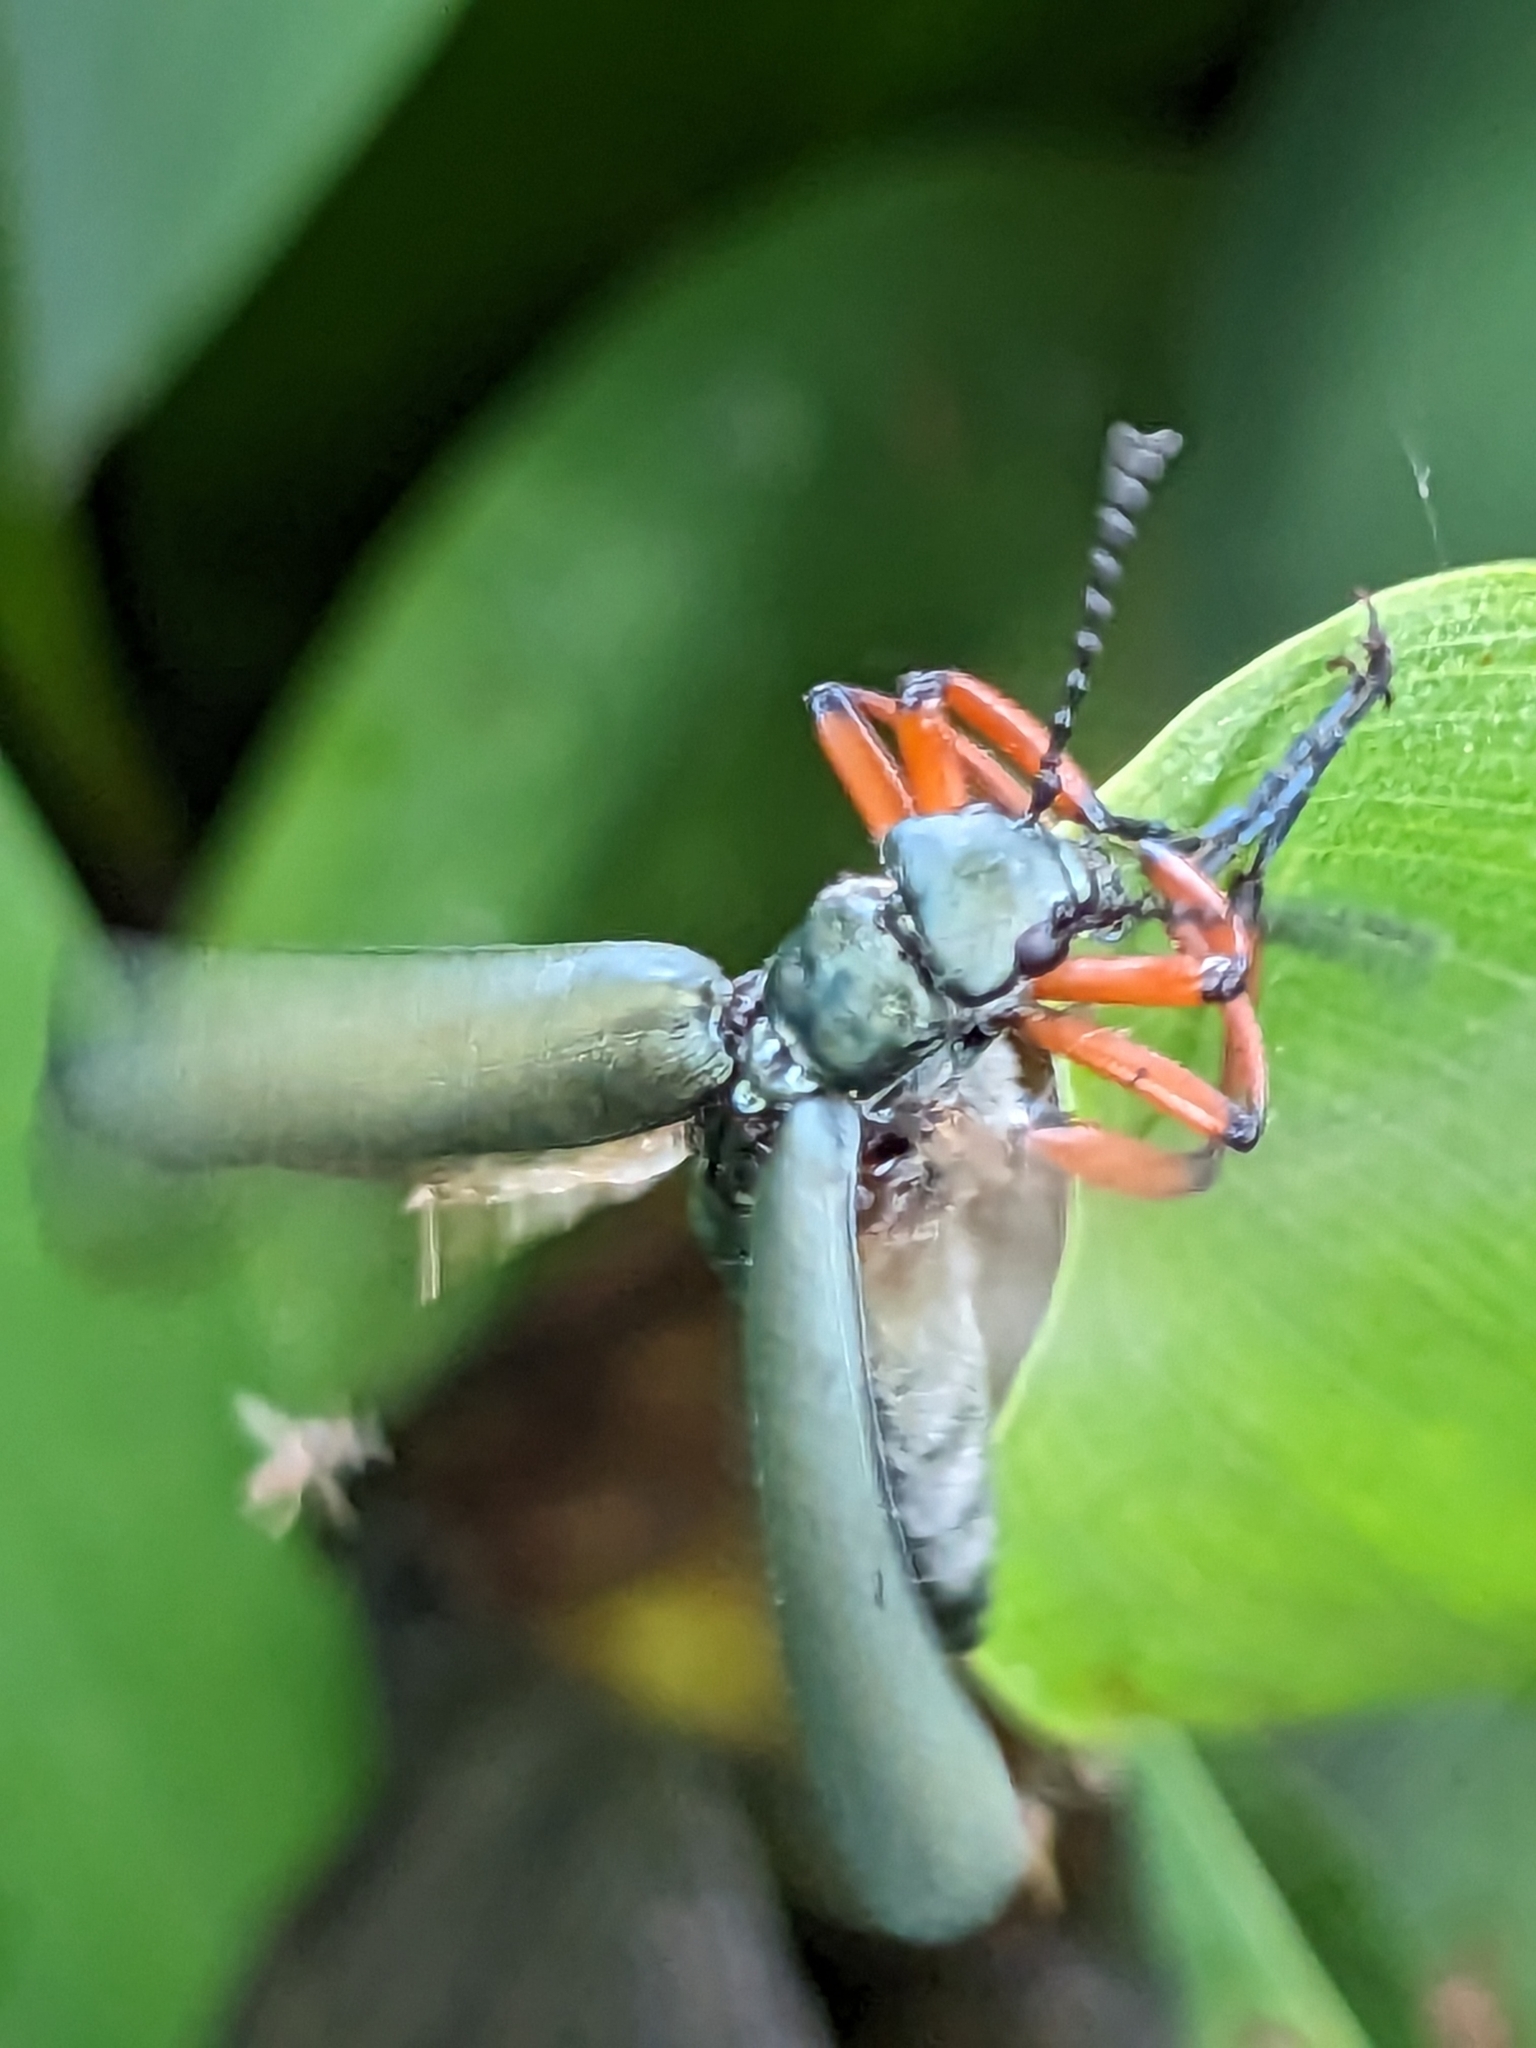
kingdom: Animalia
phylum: Arthropoda
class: Insecta
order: Coleoptera
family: Meloidae
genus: Lytta
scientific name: Lytta sayi
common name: Say's blister beetle
